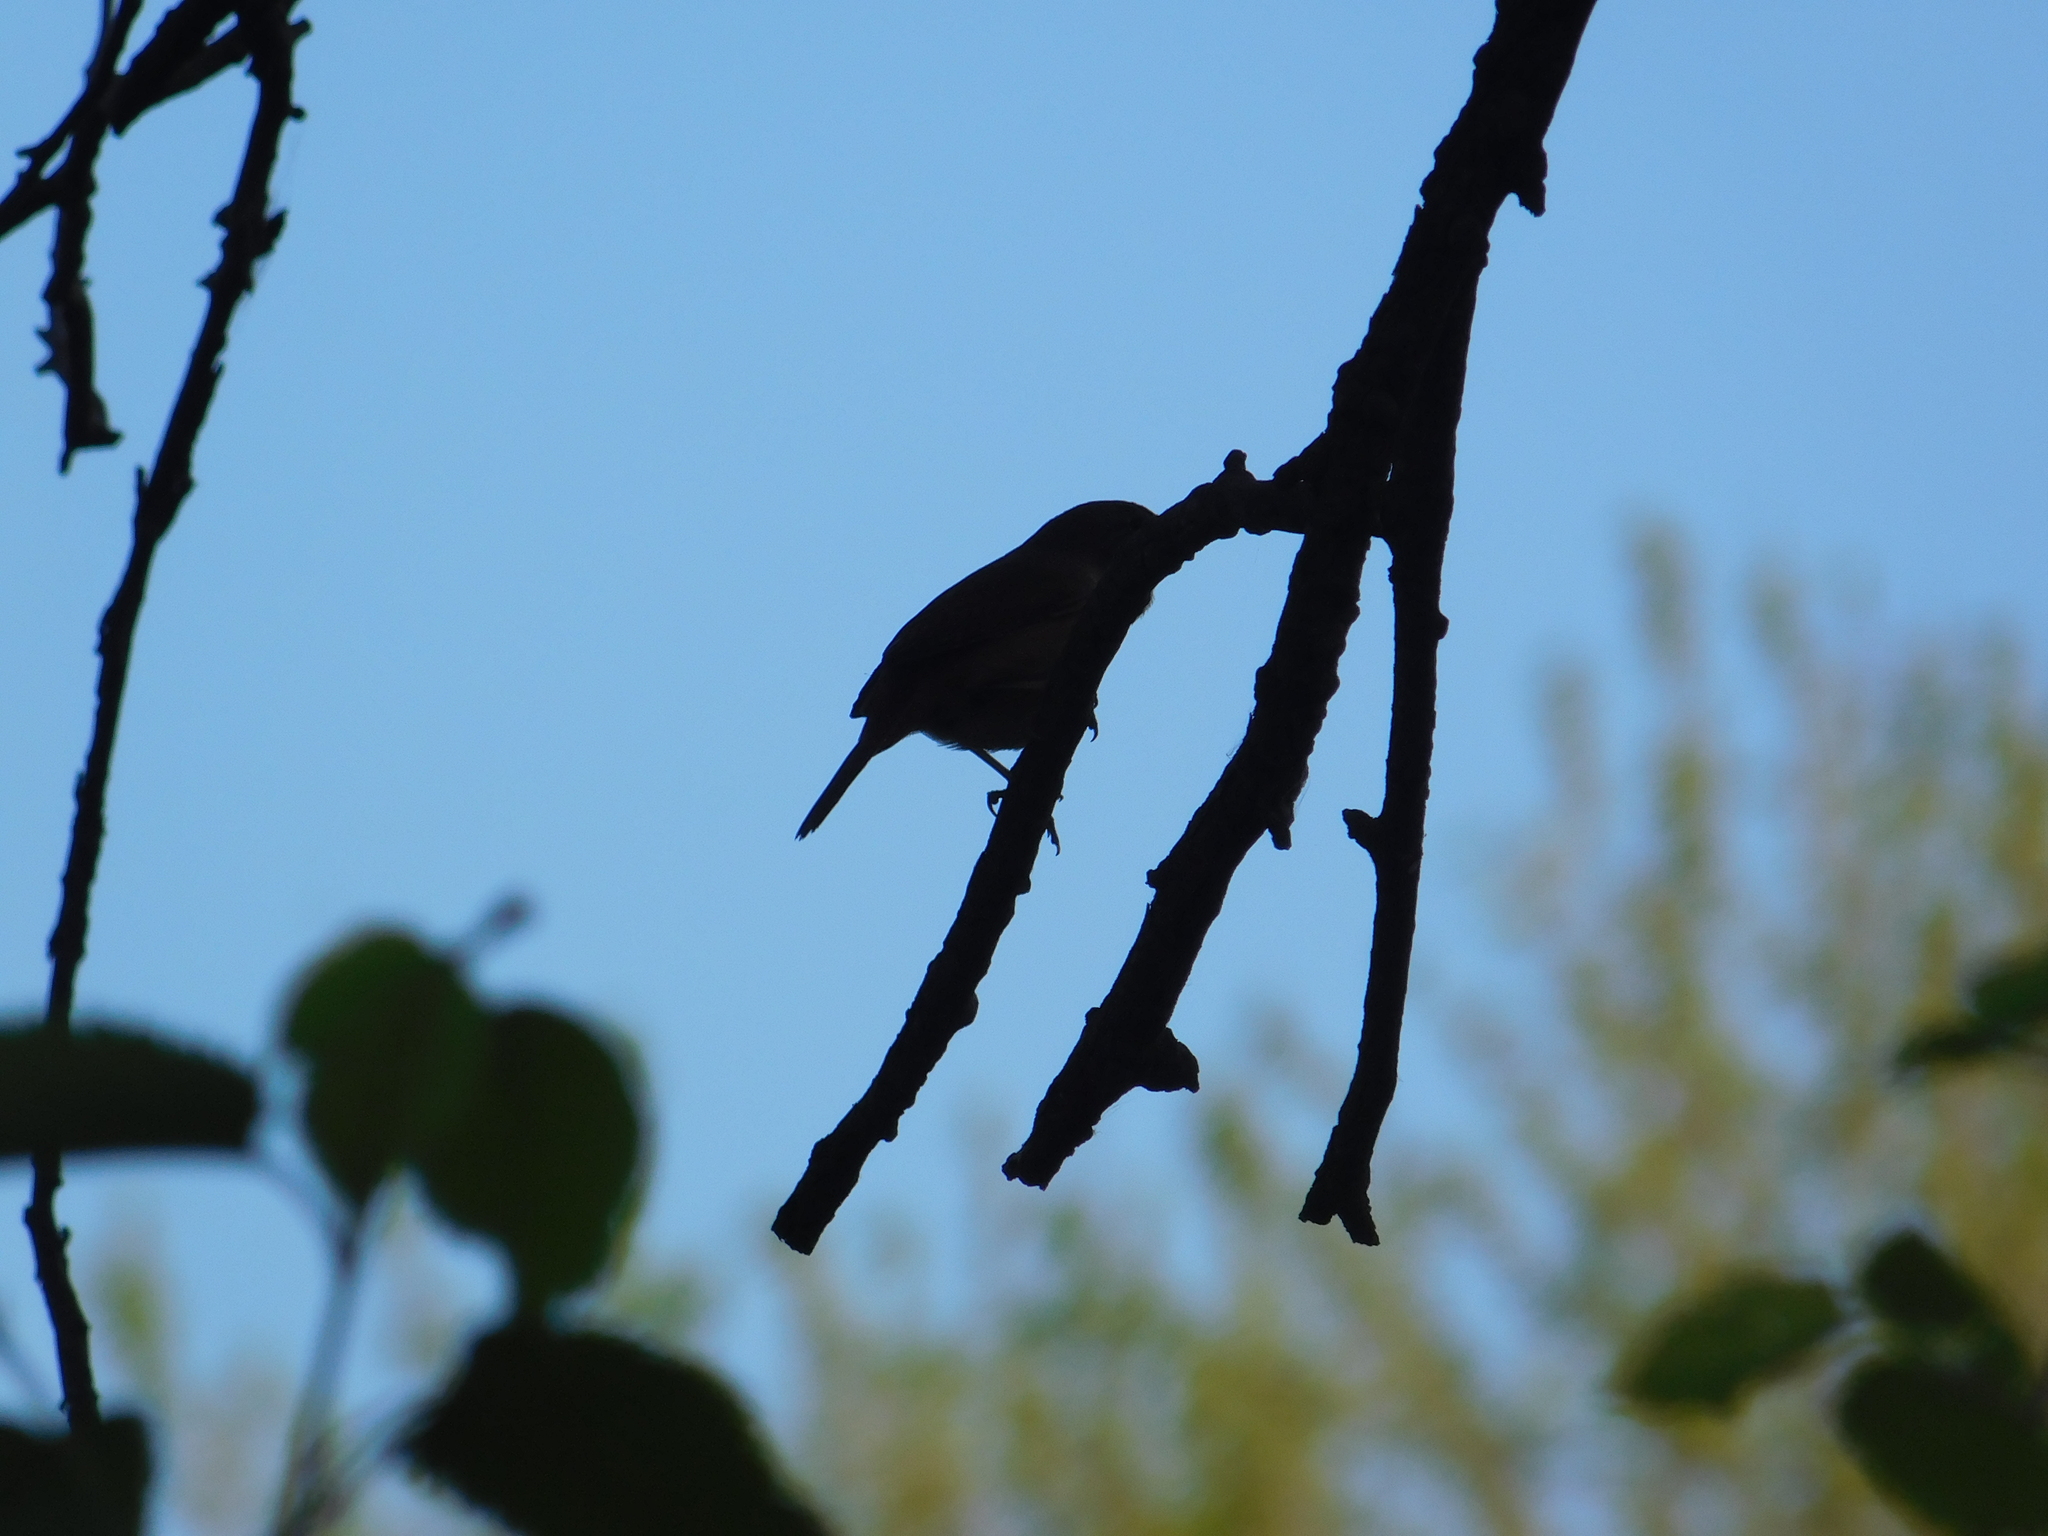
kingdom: Animalia
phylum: Chordata
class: Aves
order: Passeriformes
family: Troglodytidae
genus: Troglodytes
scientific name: Troglodytes aedon
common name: House wren
